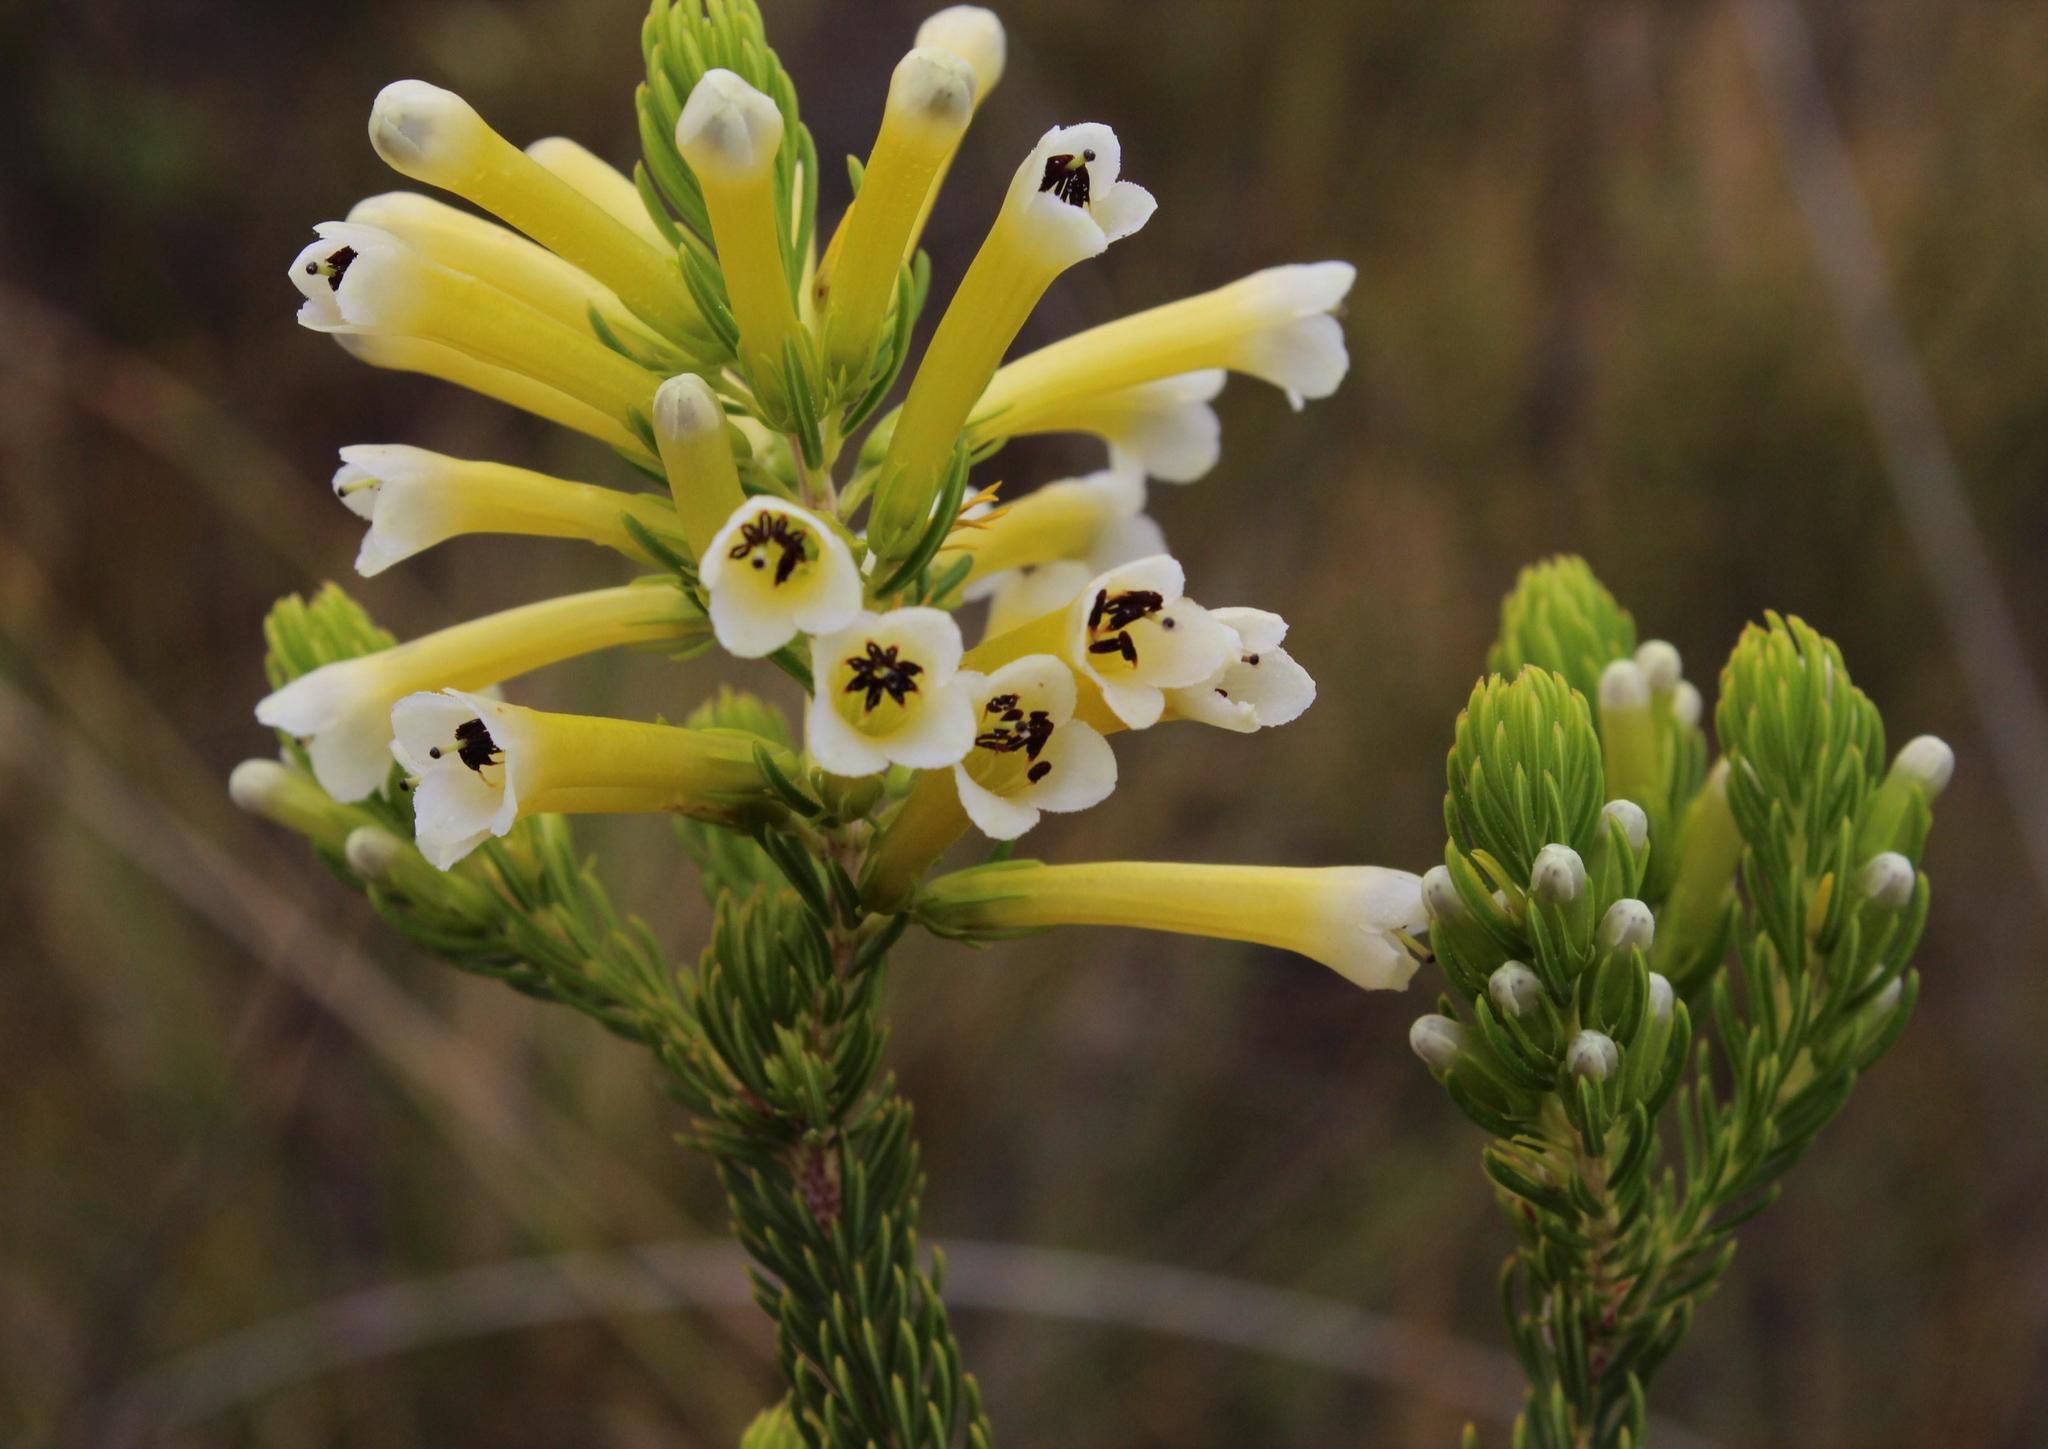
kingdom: Plantae
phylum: Tracheophyta
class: Magnoliopsida
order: Ericales
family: Ericaceae
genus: Erica
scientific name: Erica pinea
